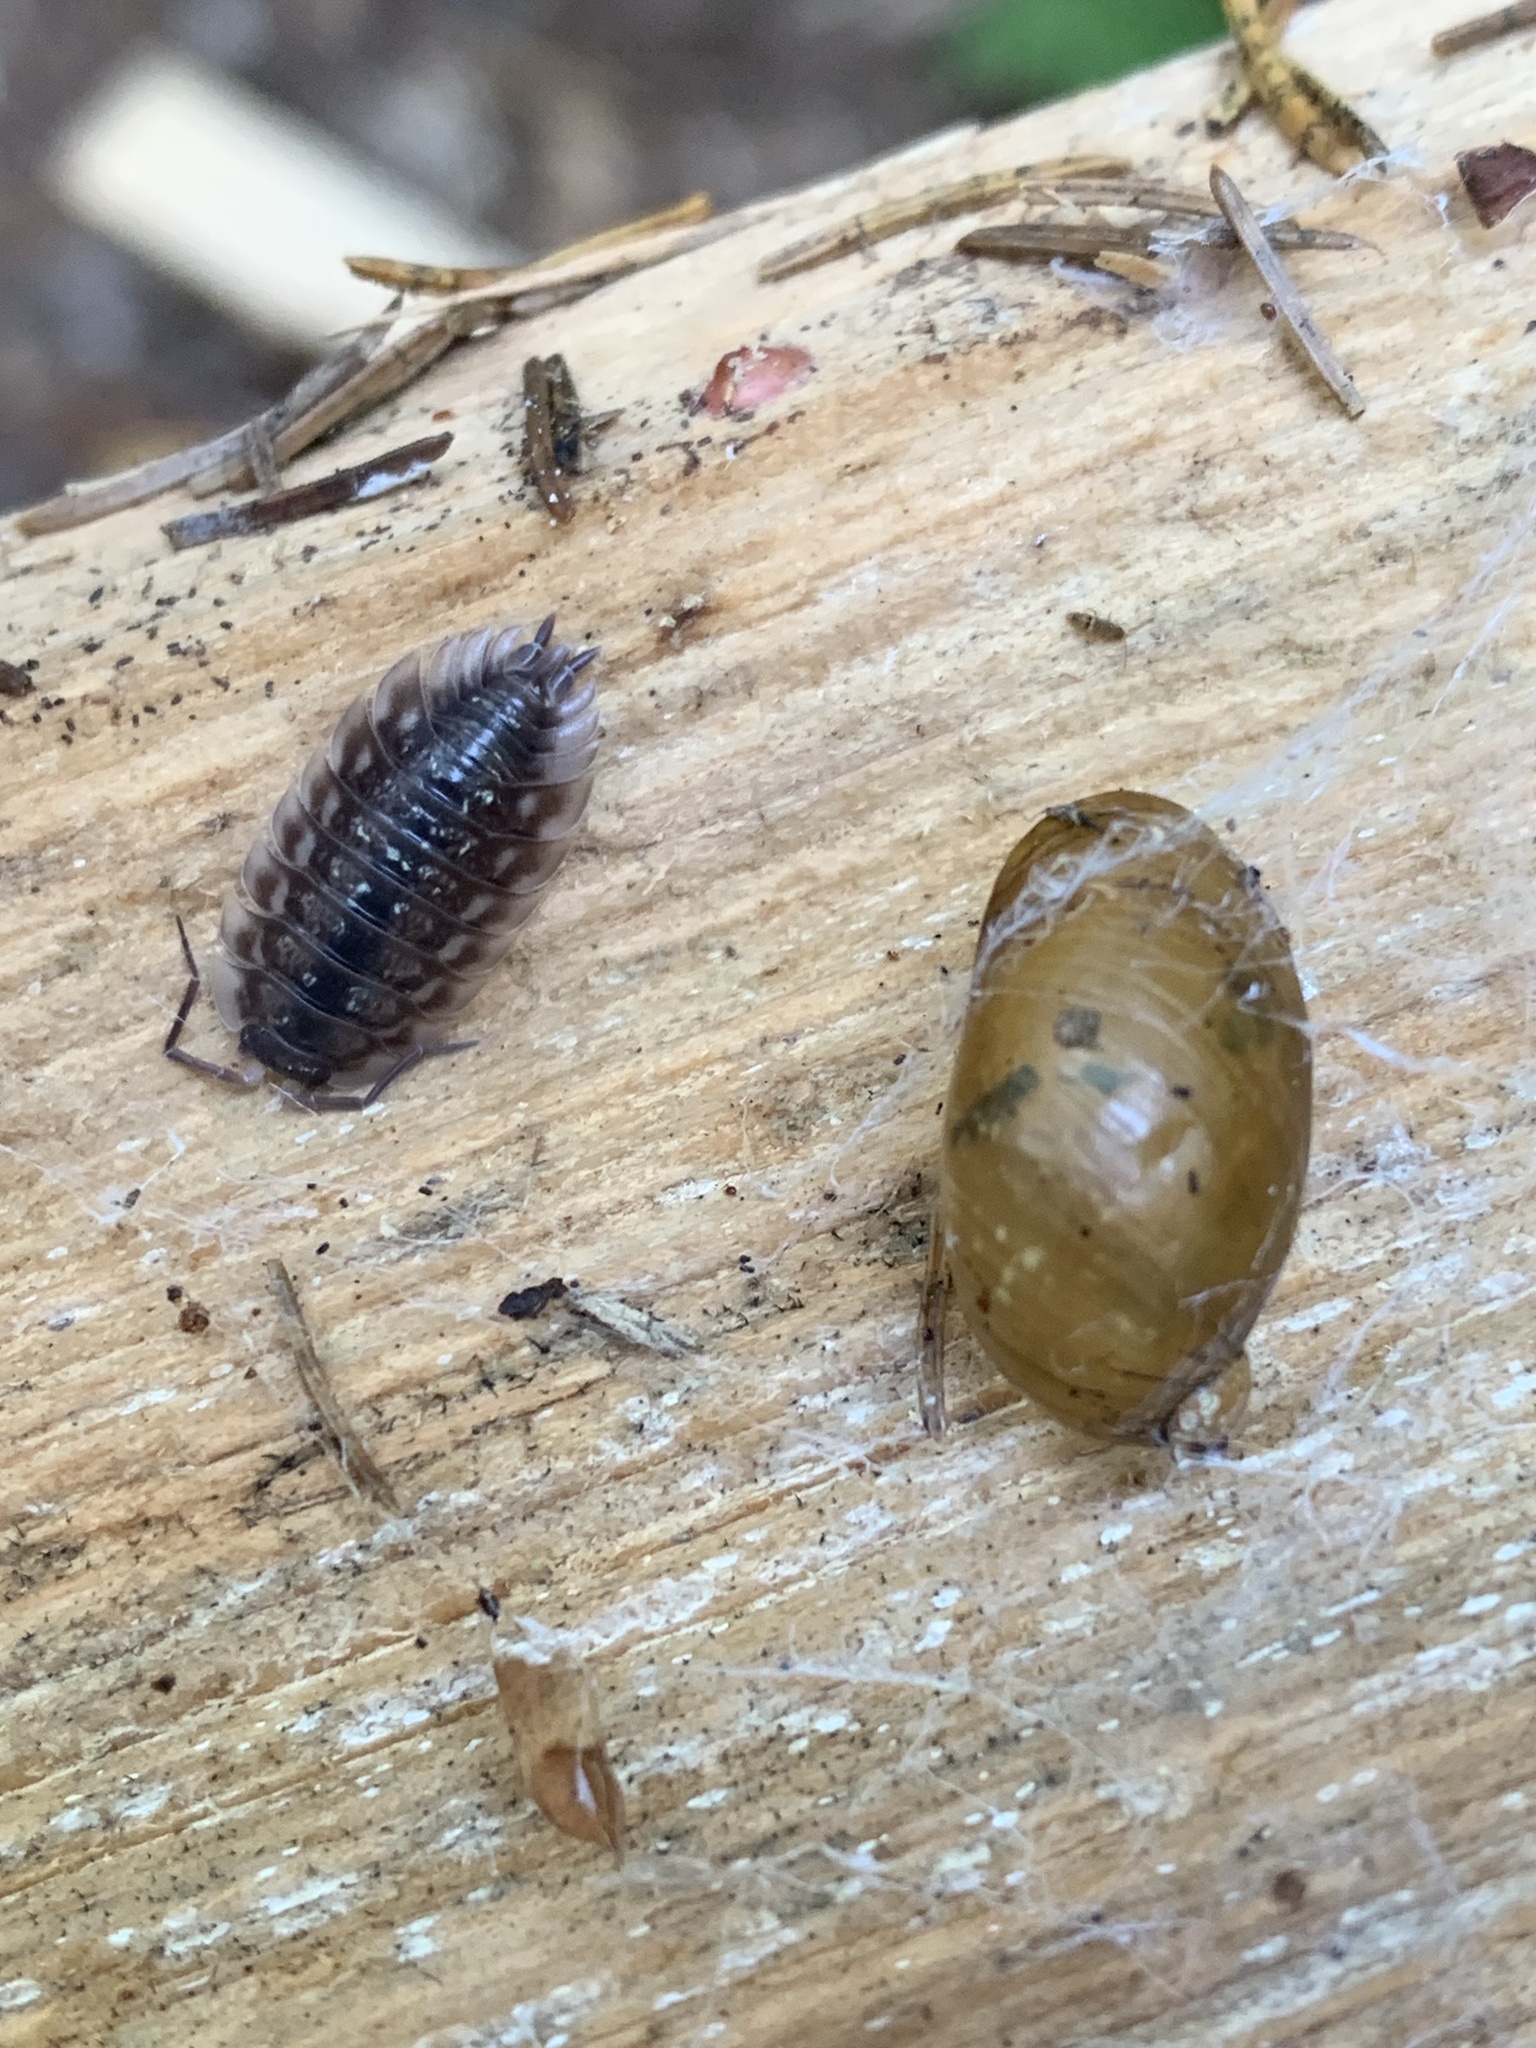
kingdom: Animalia
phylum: Arthropoda
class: Malacostraca
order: Isopoda
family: Oniscidae
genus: Oniscus
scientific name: Oniscus asellus
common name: Common shiny woodlouse
